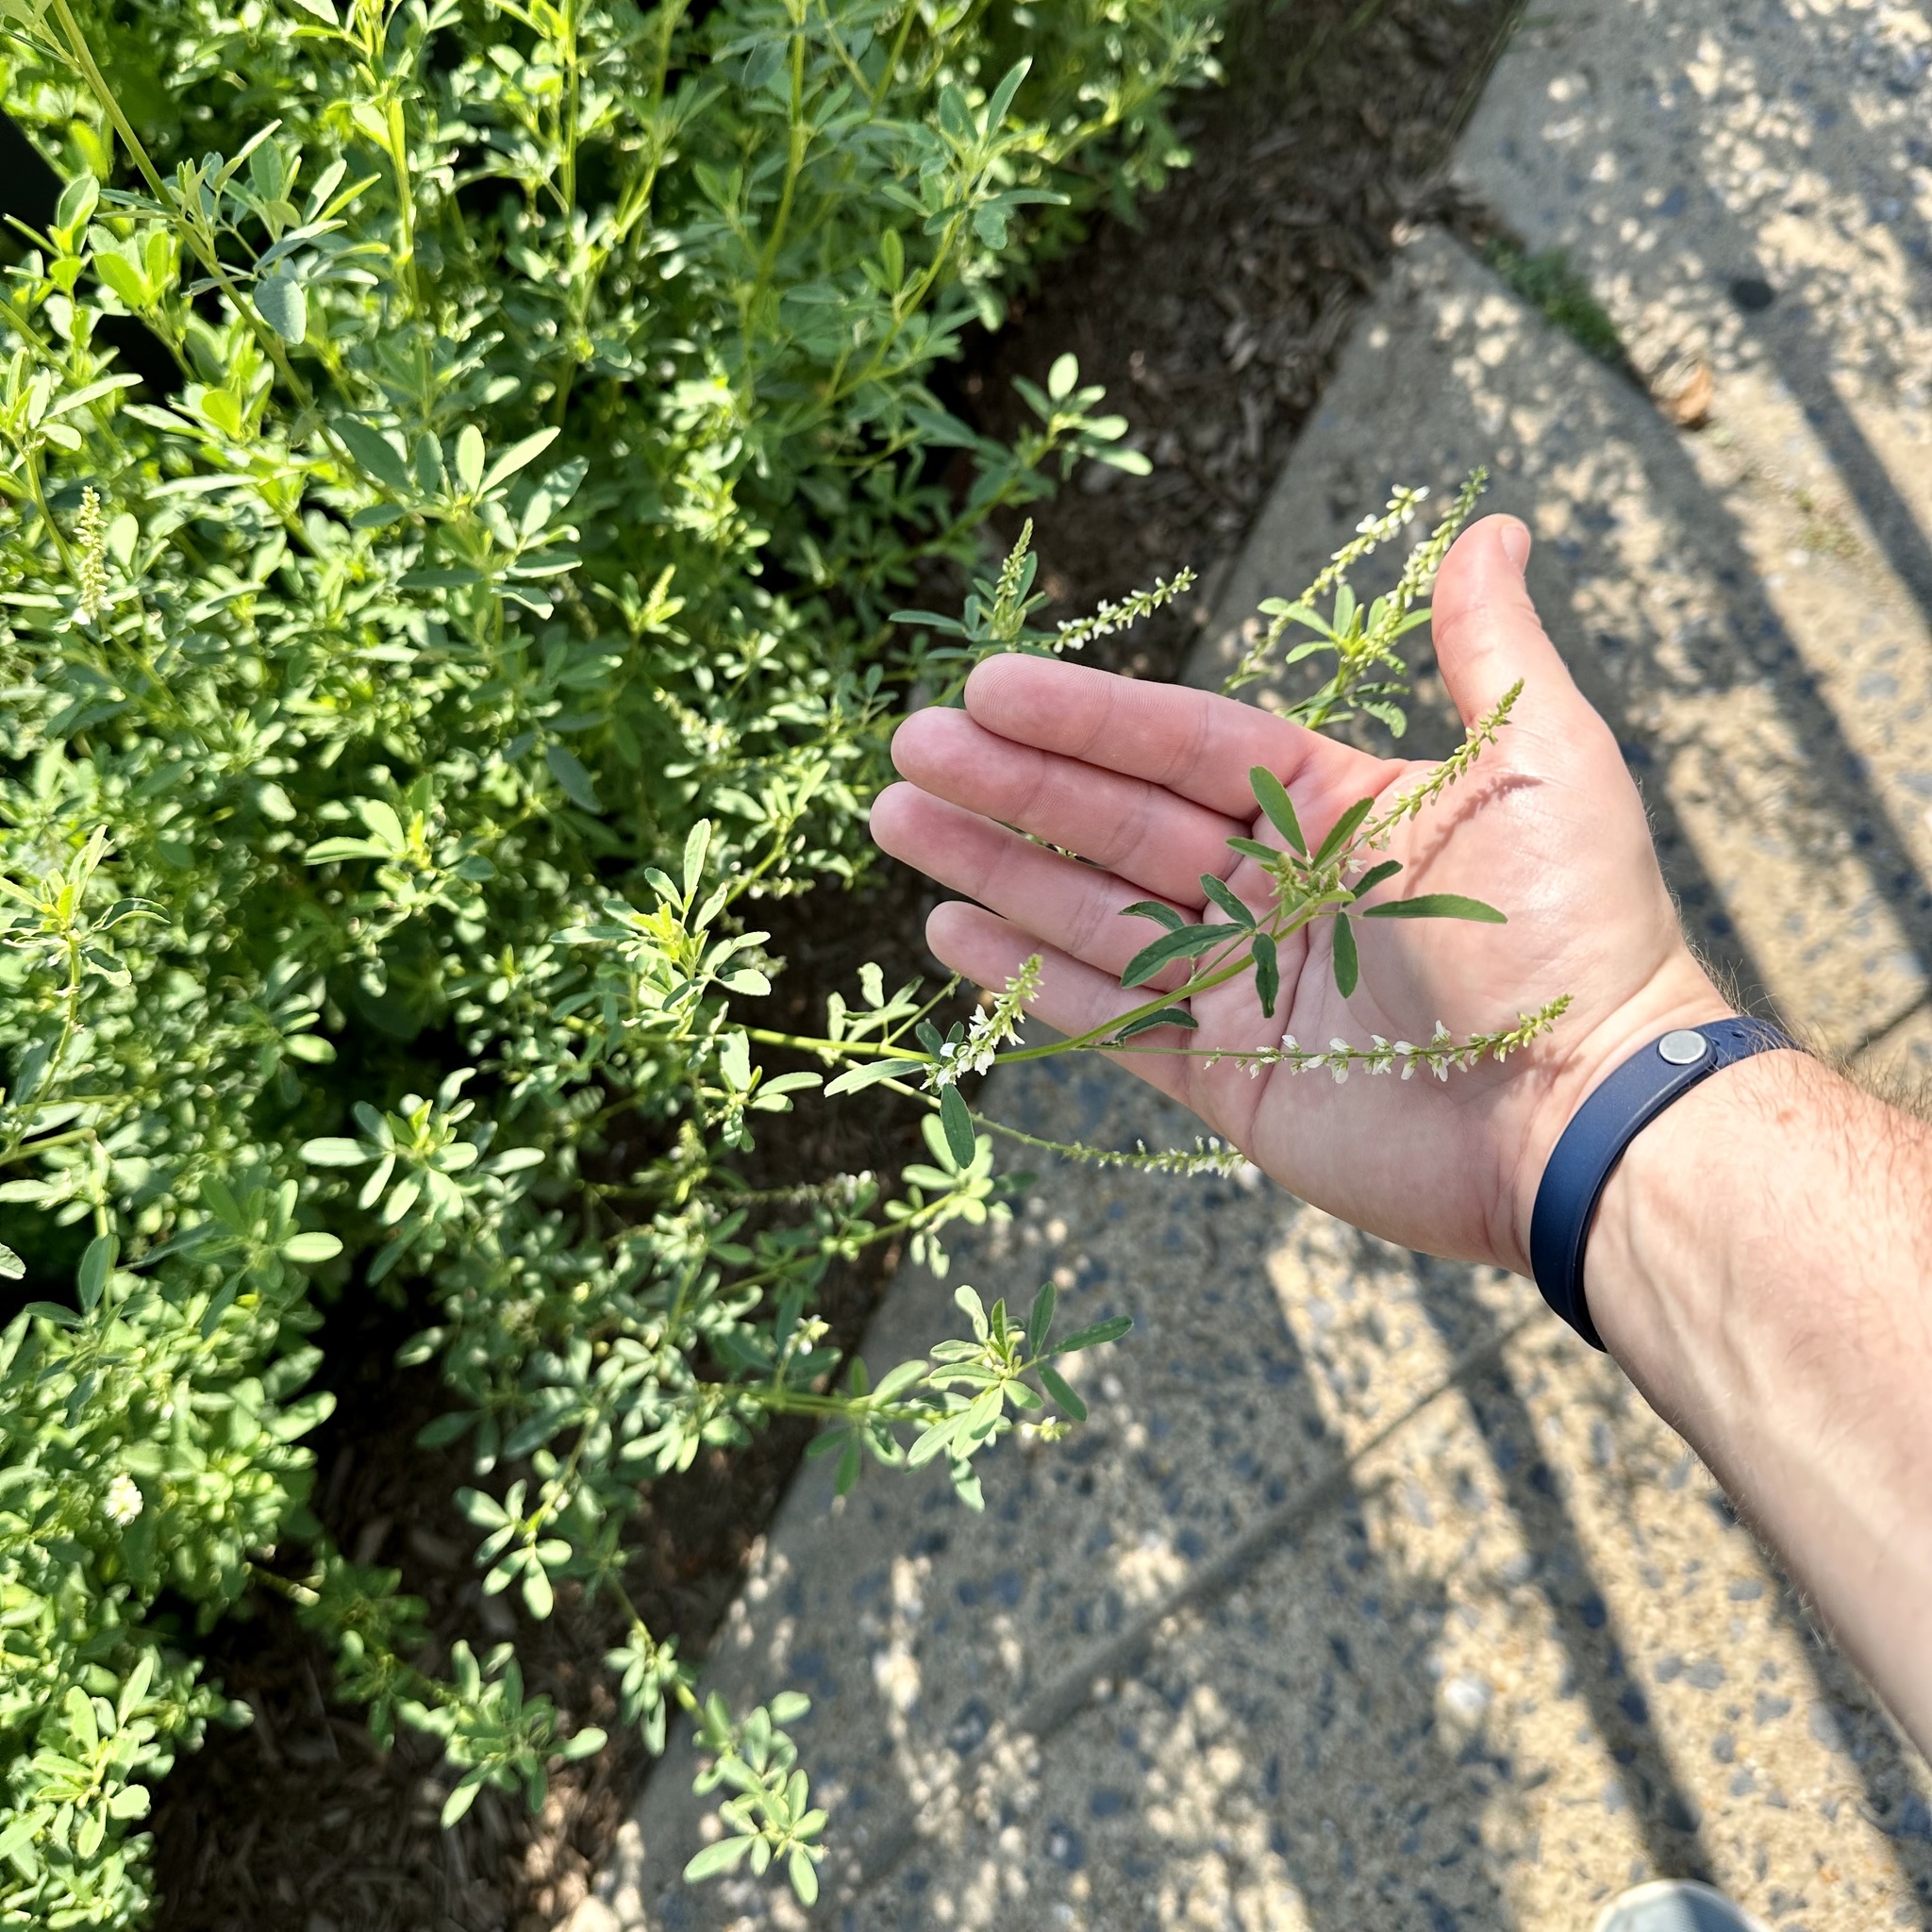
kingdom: Plantae
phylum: Tracheophyta
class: Magnoliopsida
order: Fabales
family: Fabaceae
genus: Melilotus
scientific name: Melilotus albus
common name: White melilot
